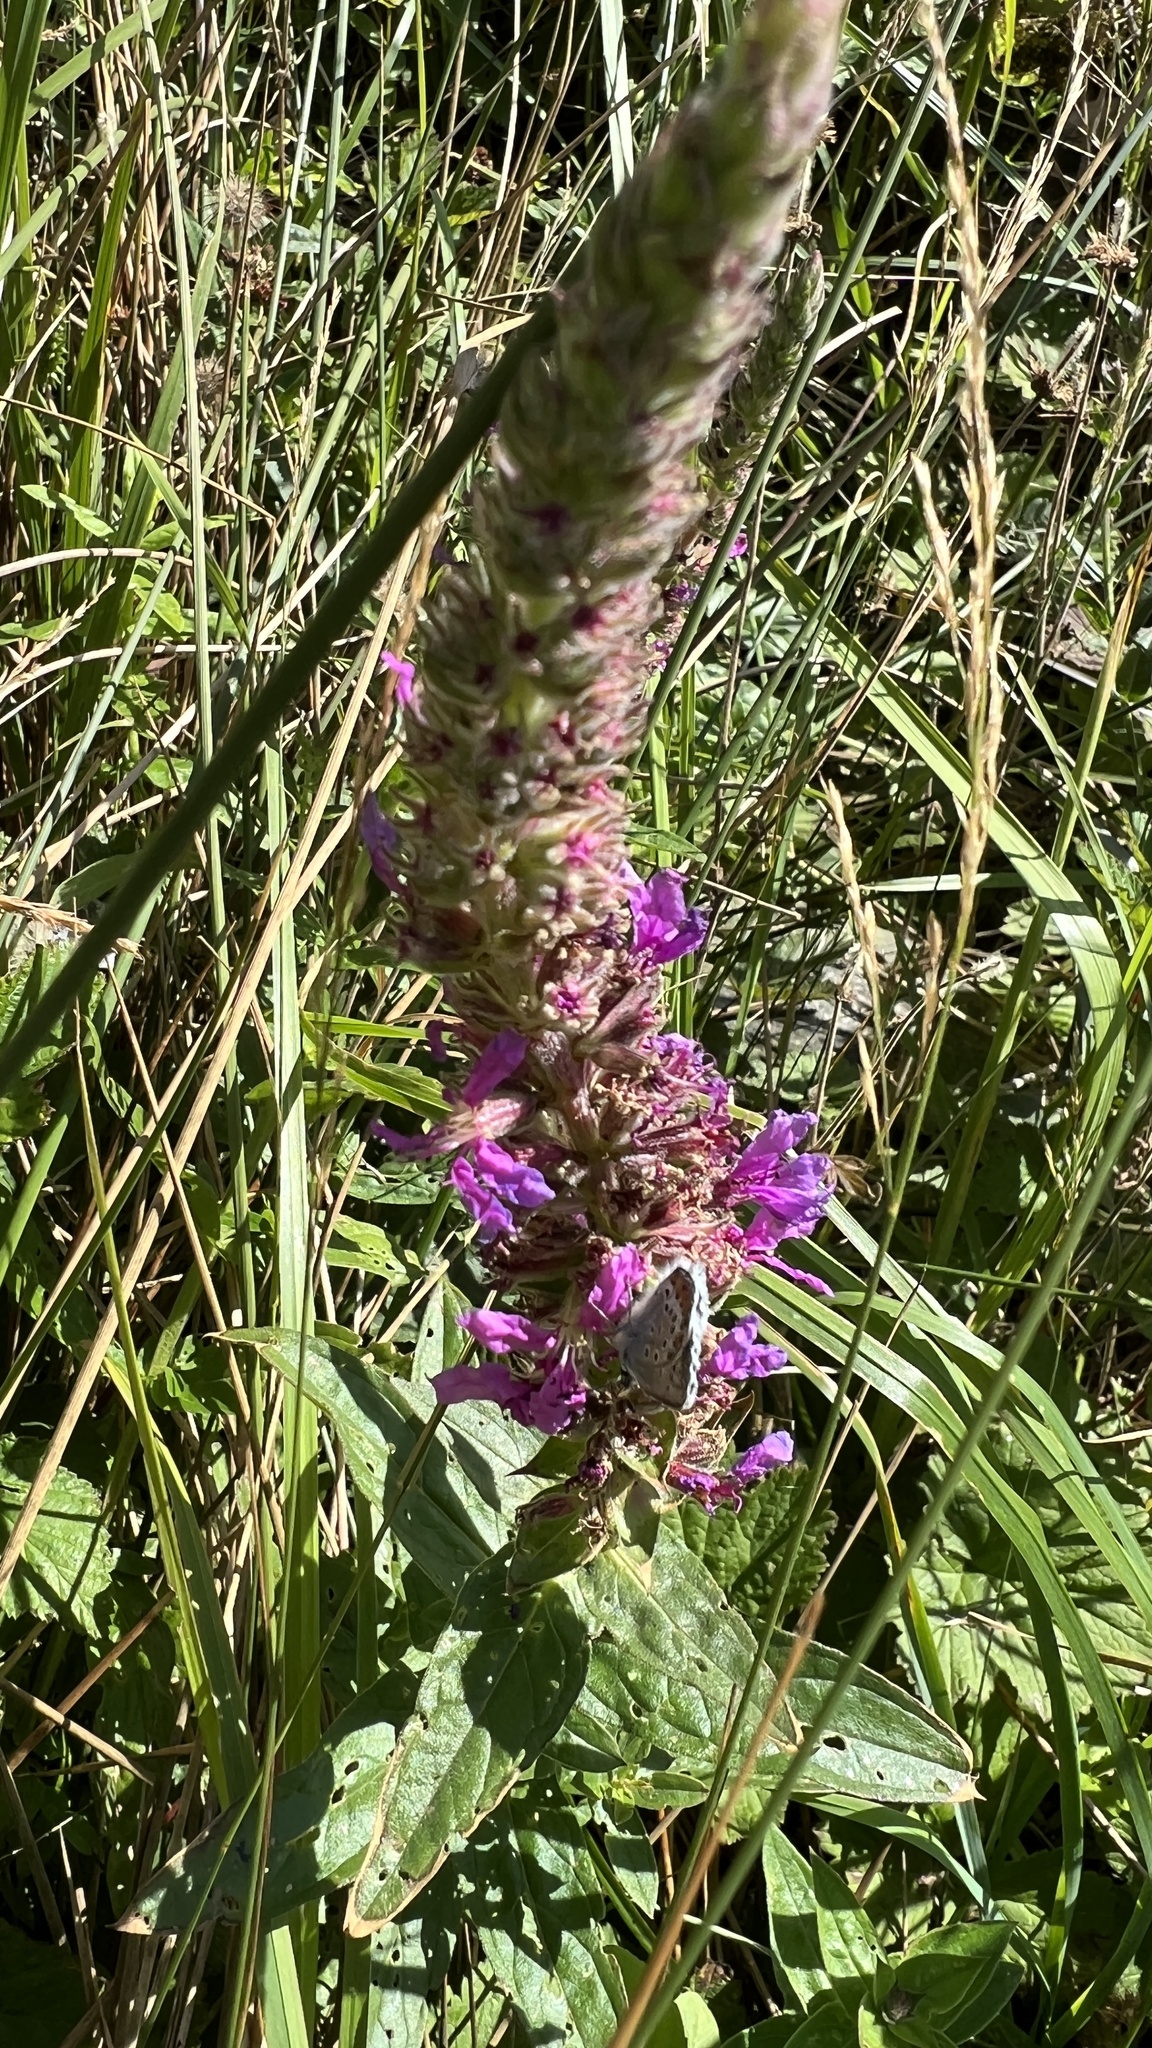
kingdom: Plantae
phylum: Tracheophyta
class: Magnoliopsida
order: Myrtales
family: Lythraceae
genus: Lythrum
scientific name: Lythrum salicaria
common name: Purple loosestrife
